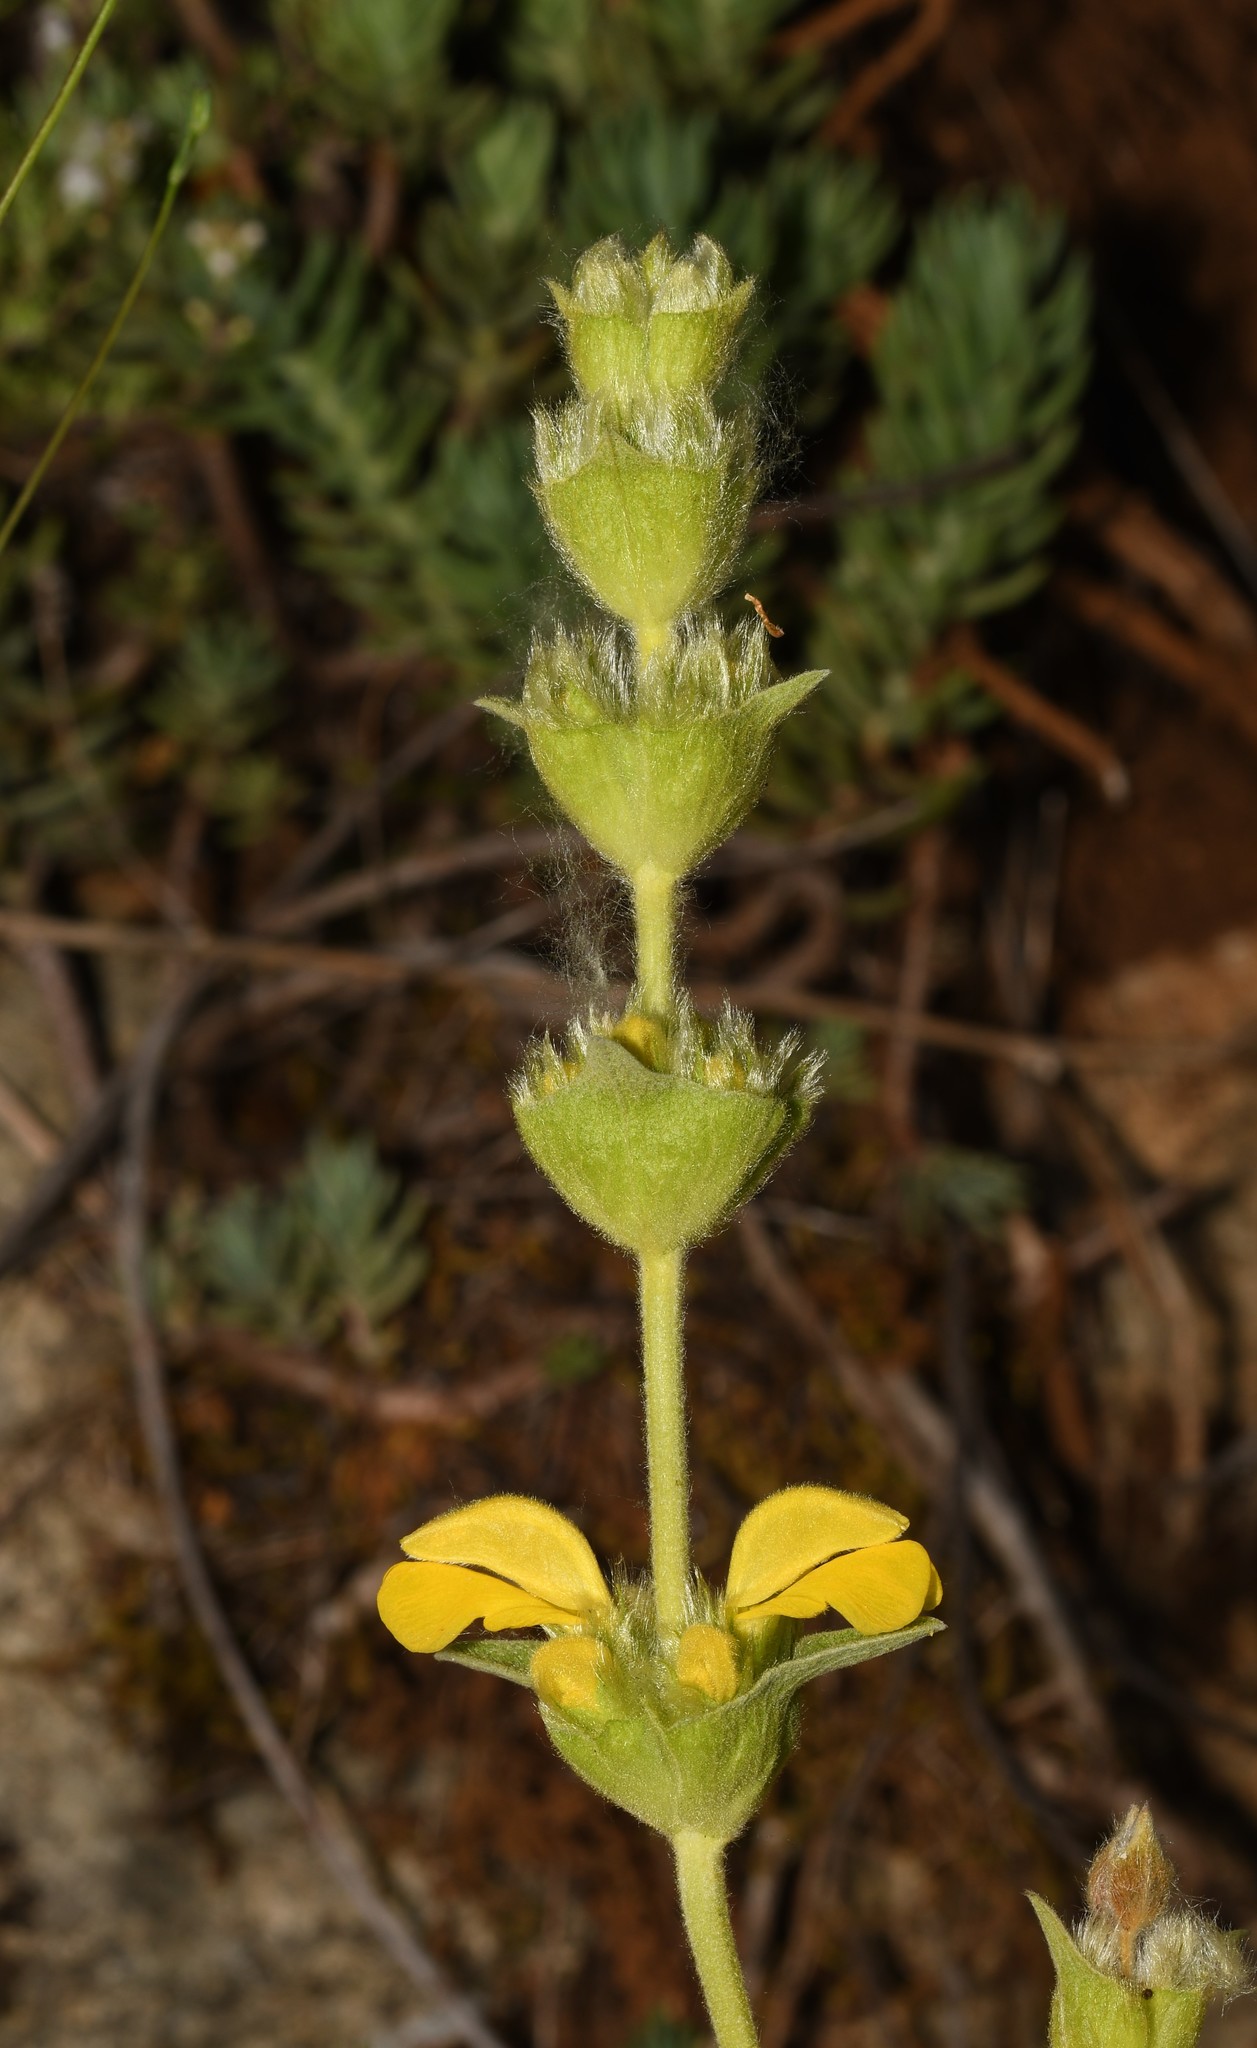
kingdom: Plantae
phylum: Tracheophyta
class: Magnoliopsida
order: Lamiales
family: Lamiaceae
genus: Phlomis
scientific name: Phlomis lychnitis
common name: Lampwickplant
